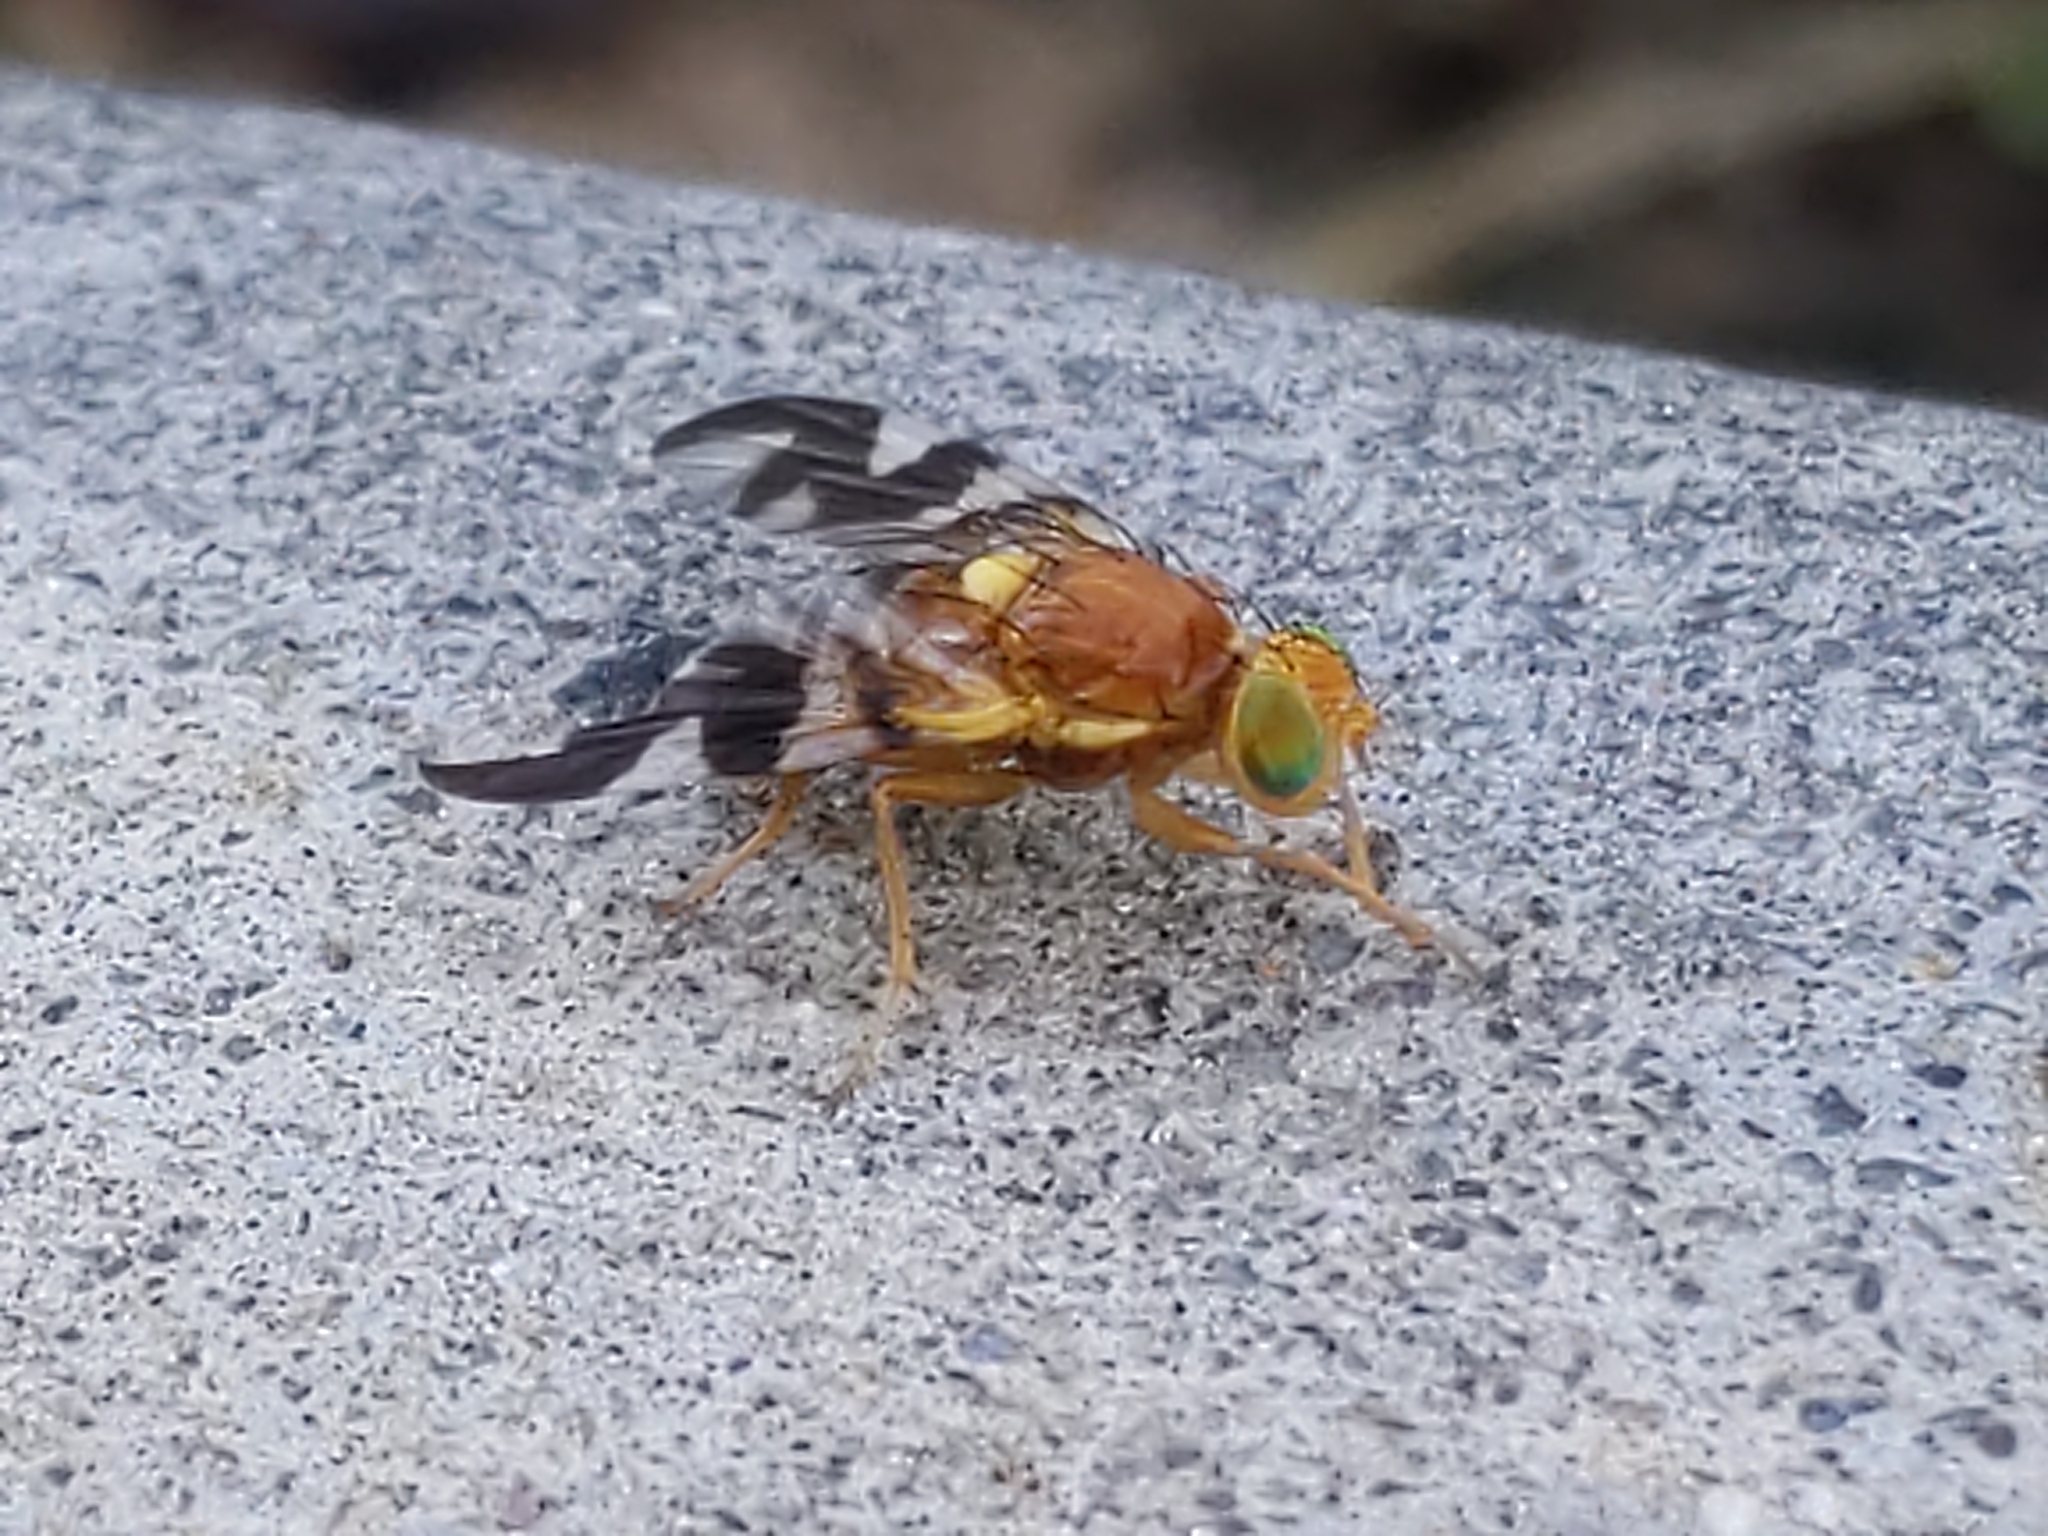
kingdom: Animalia
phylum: Arthropoda
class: Insecta
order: Diptera
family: Tephritidae
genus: Rhagoletis
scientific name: Rhagoletis suavis
